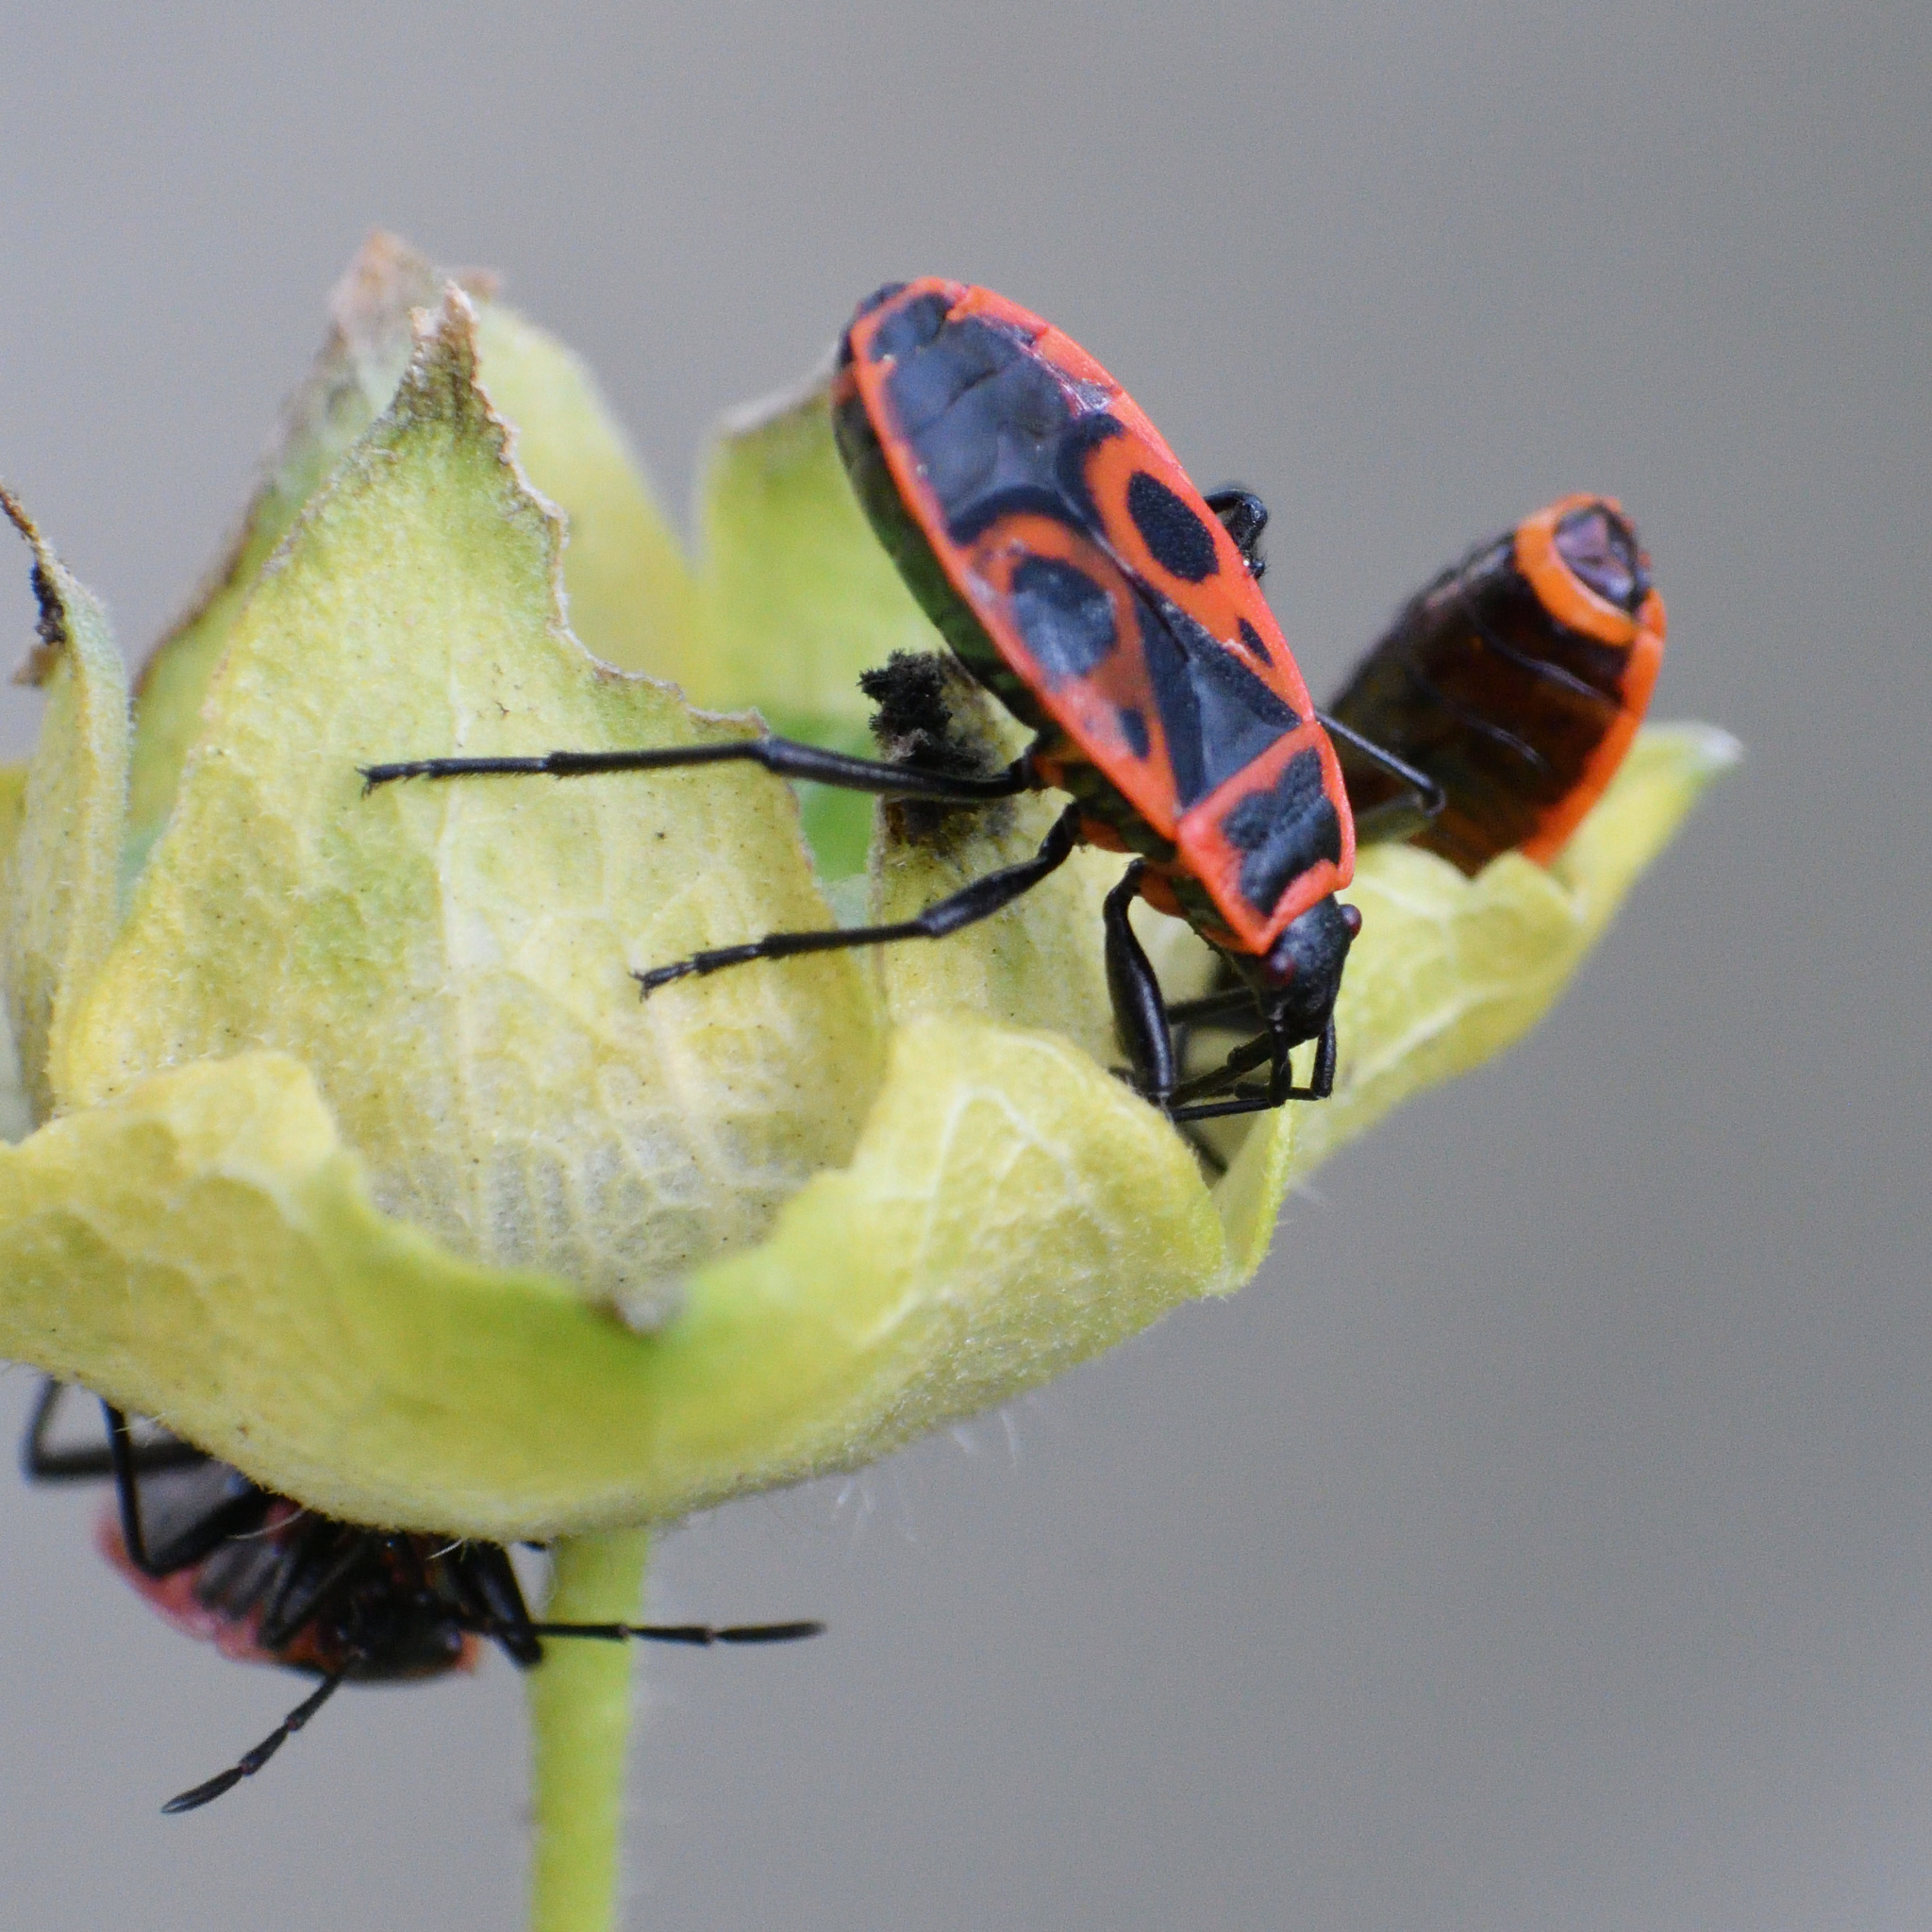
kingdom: Animalia
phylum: Arthropoda
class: Insecta
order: Hemiptera
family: Pyrrhocoridae
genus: Pyrrhocoris
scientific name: Pyrrhocoris apterus
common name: Firebug
